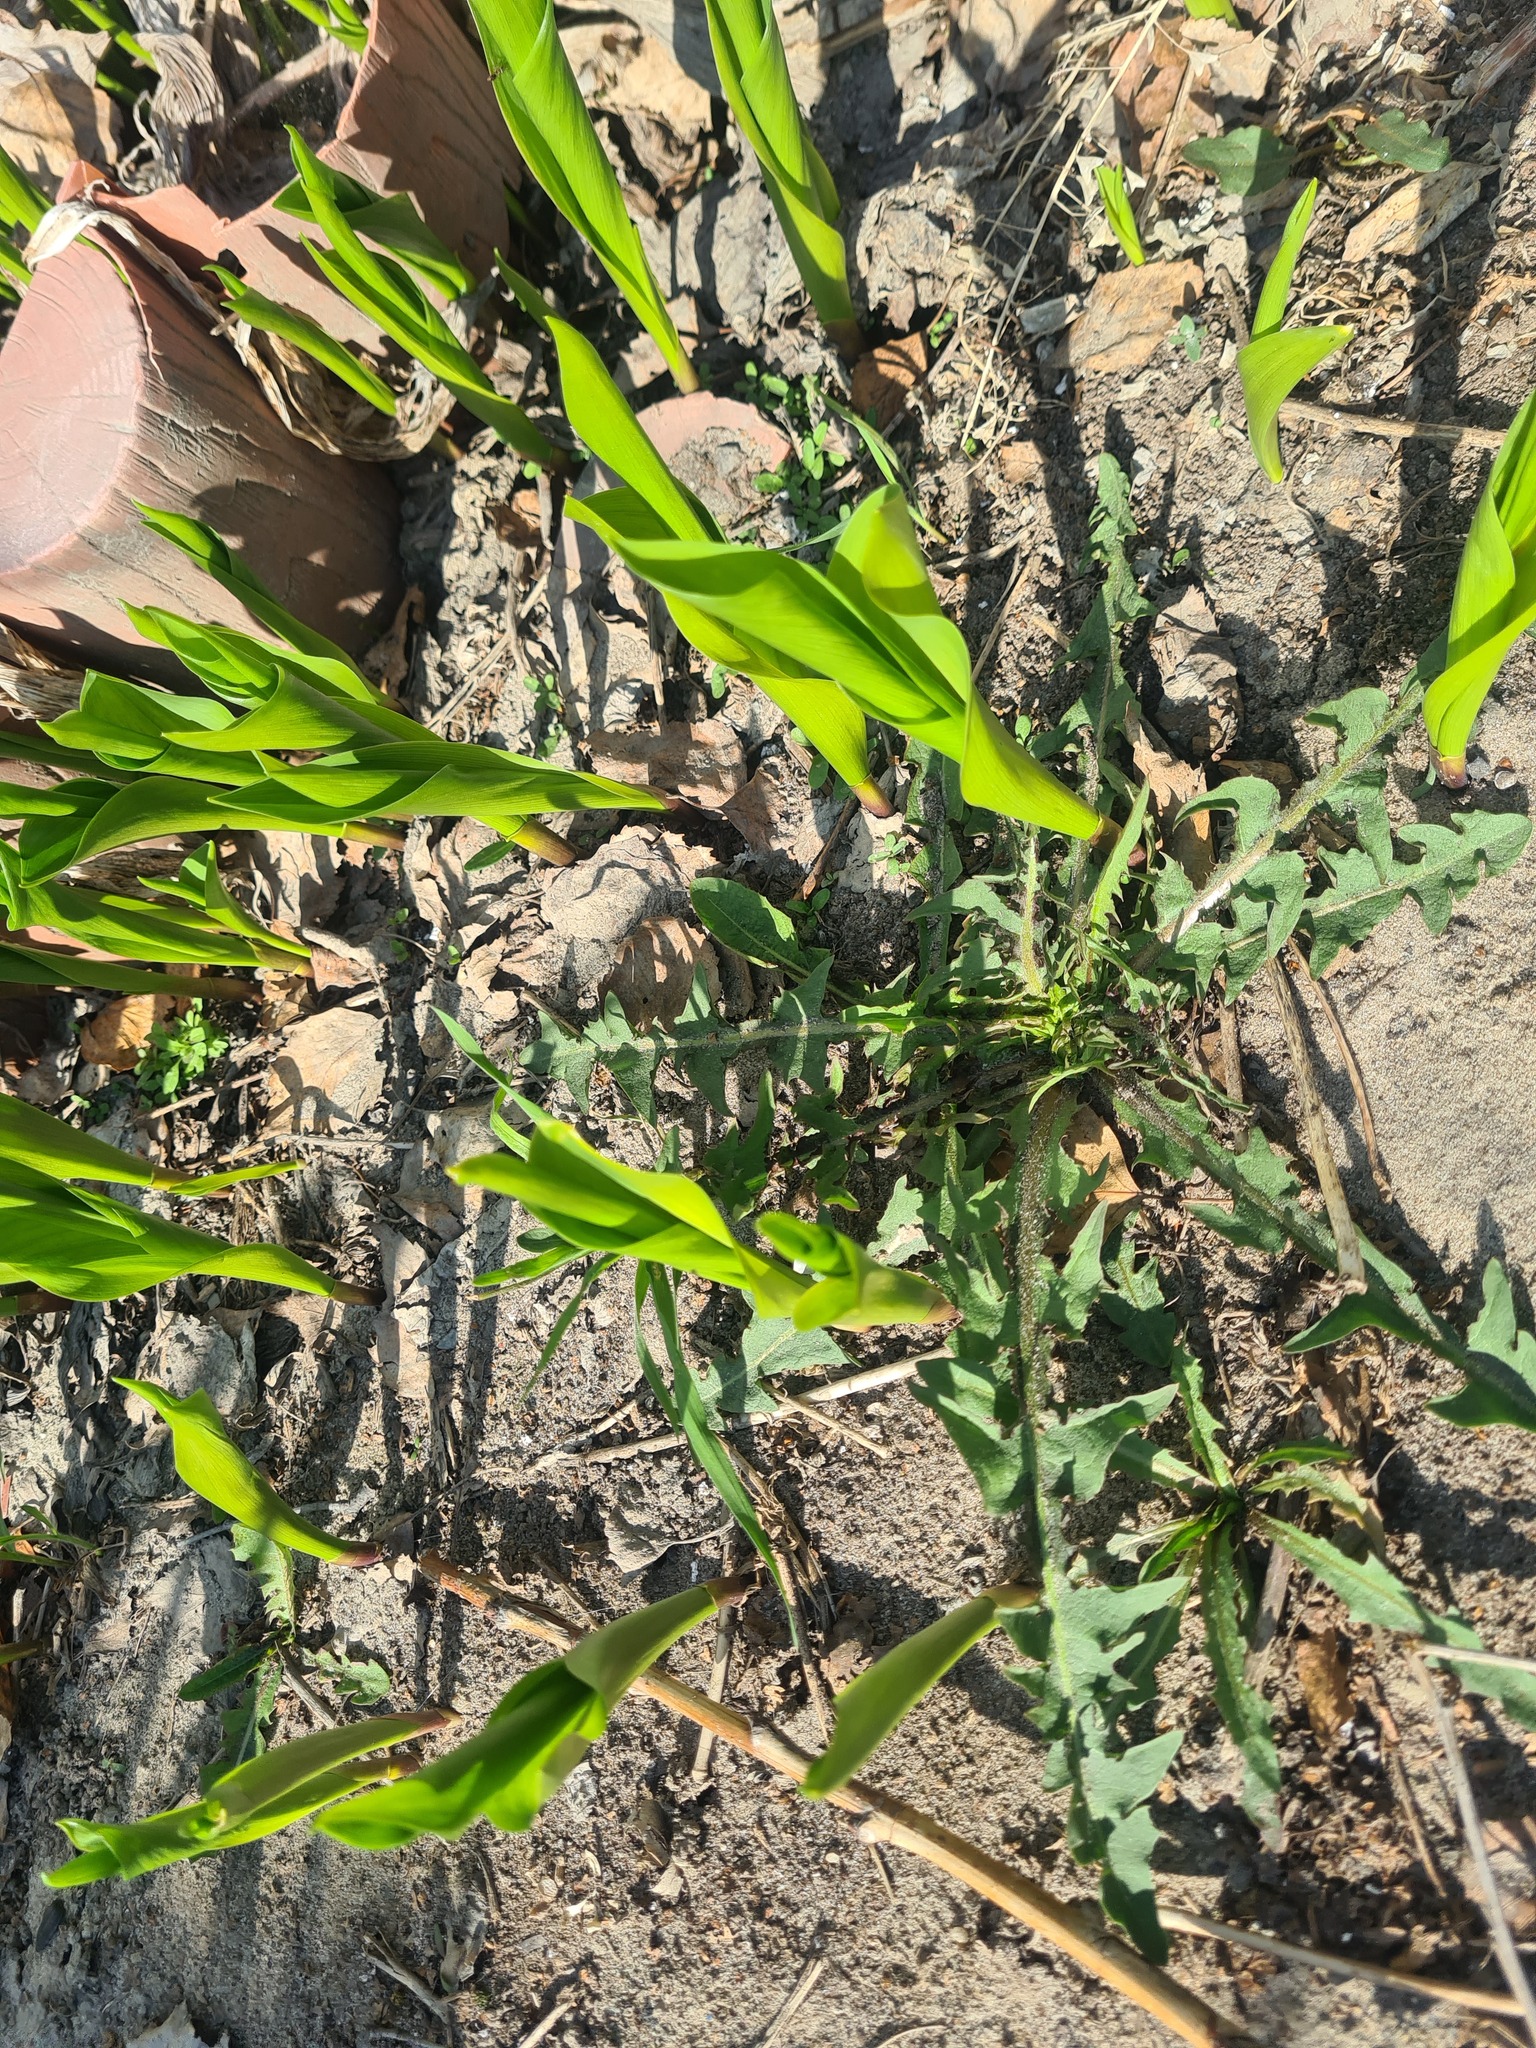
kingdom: Plantae
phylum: Tracheophyta
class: Liliopsida
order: Asparagales
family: Asparagaceae
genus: Convallaria
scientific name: Convallaria majalis
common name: Lily-of-the-valley
